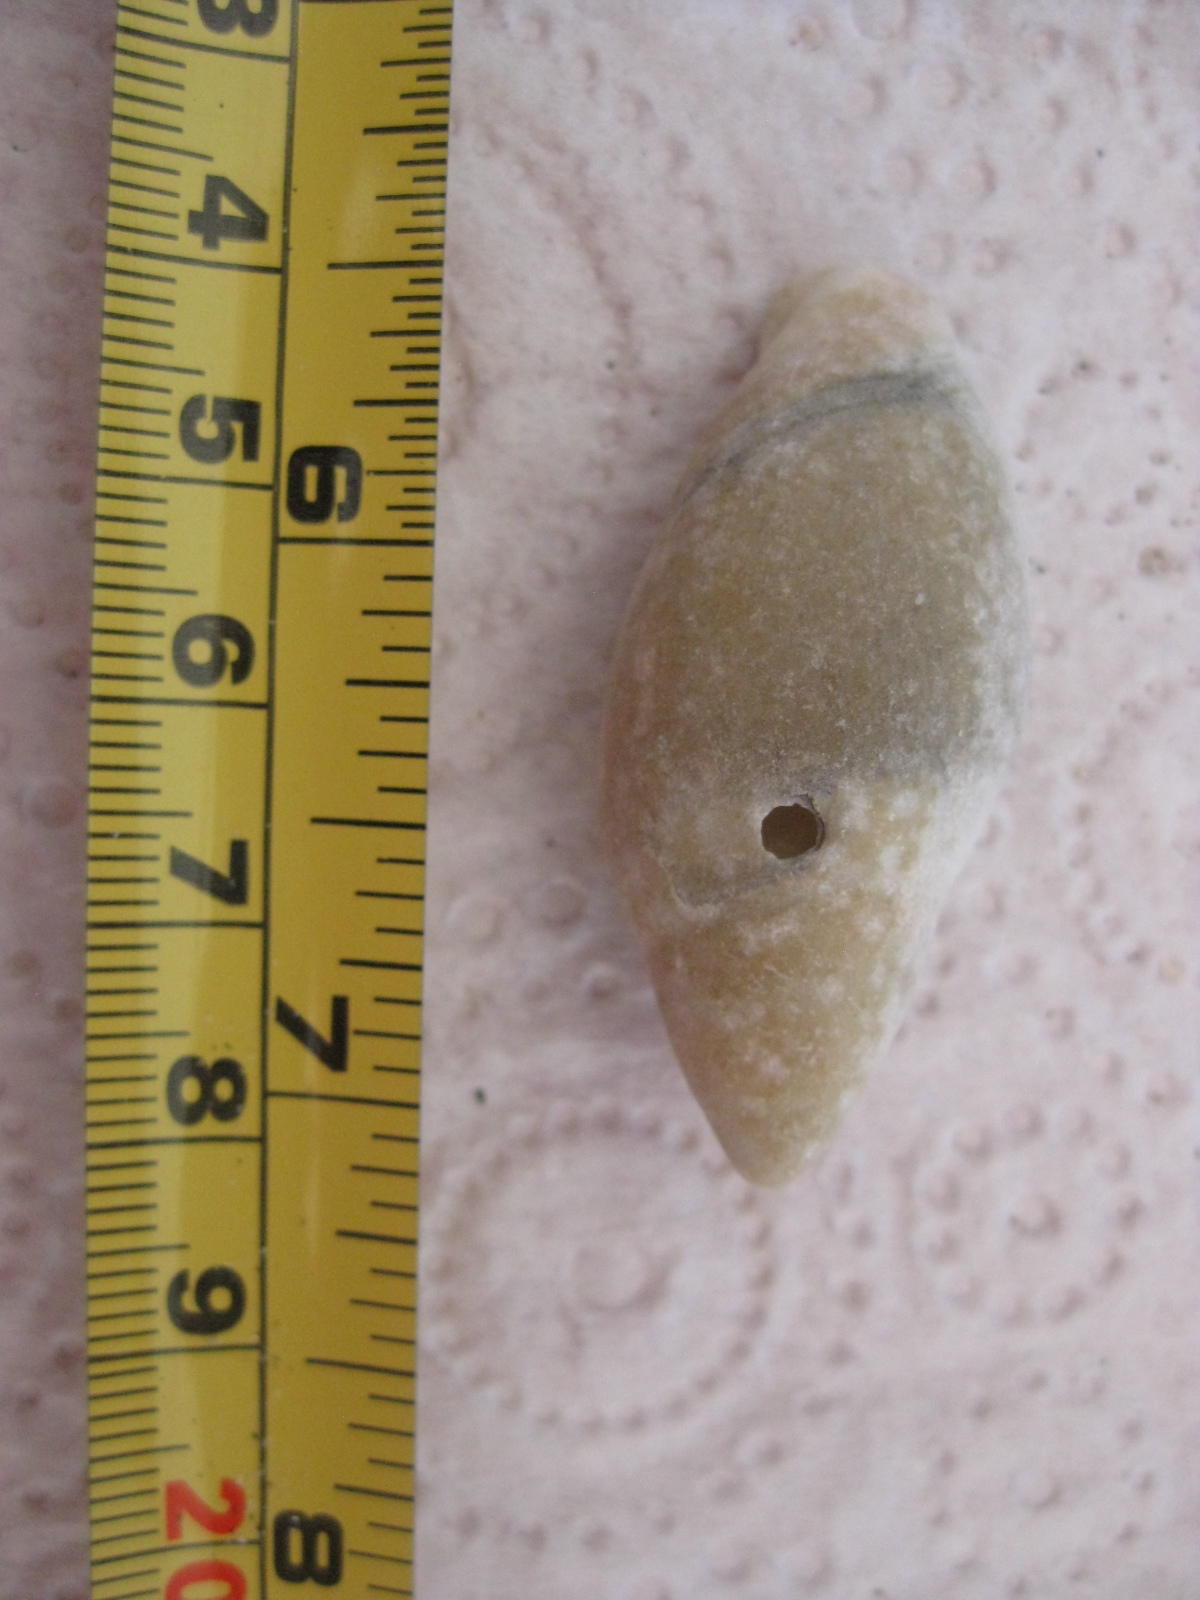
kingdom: Animalia
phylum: Mollusca
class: Gastropoda
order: Neogastropoda
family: Ancillariidae
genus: Amalda
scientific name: Amalda mucronata
